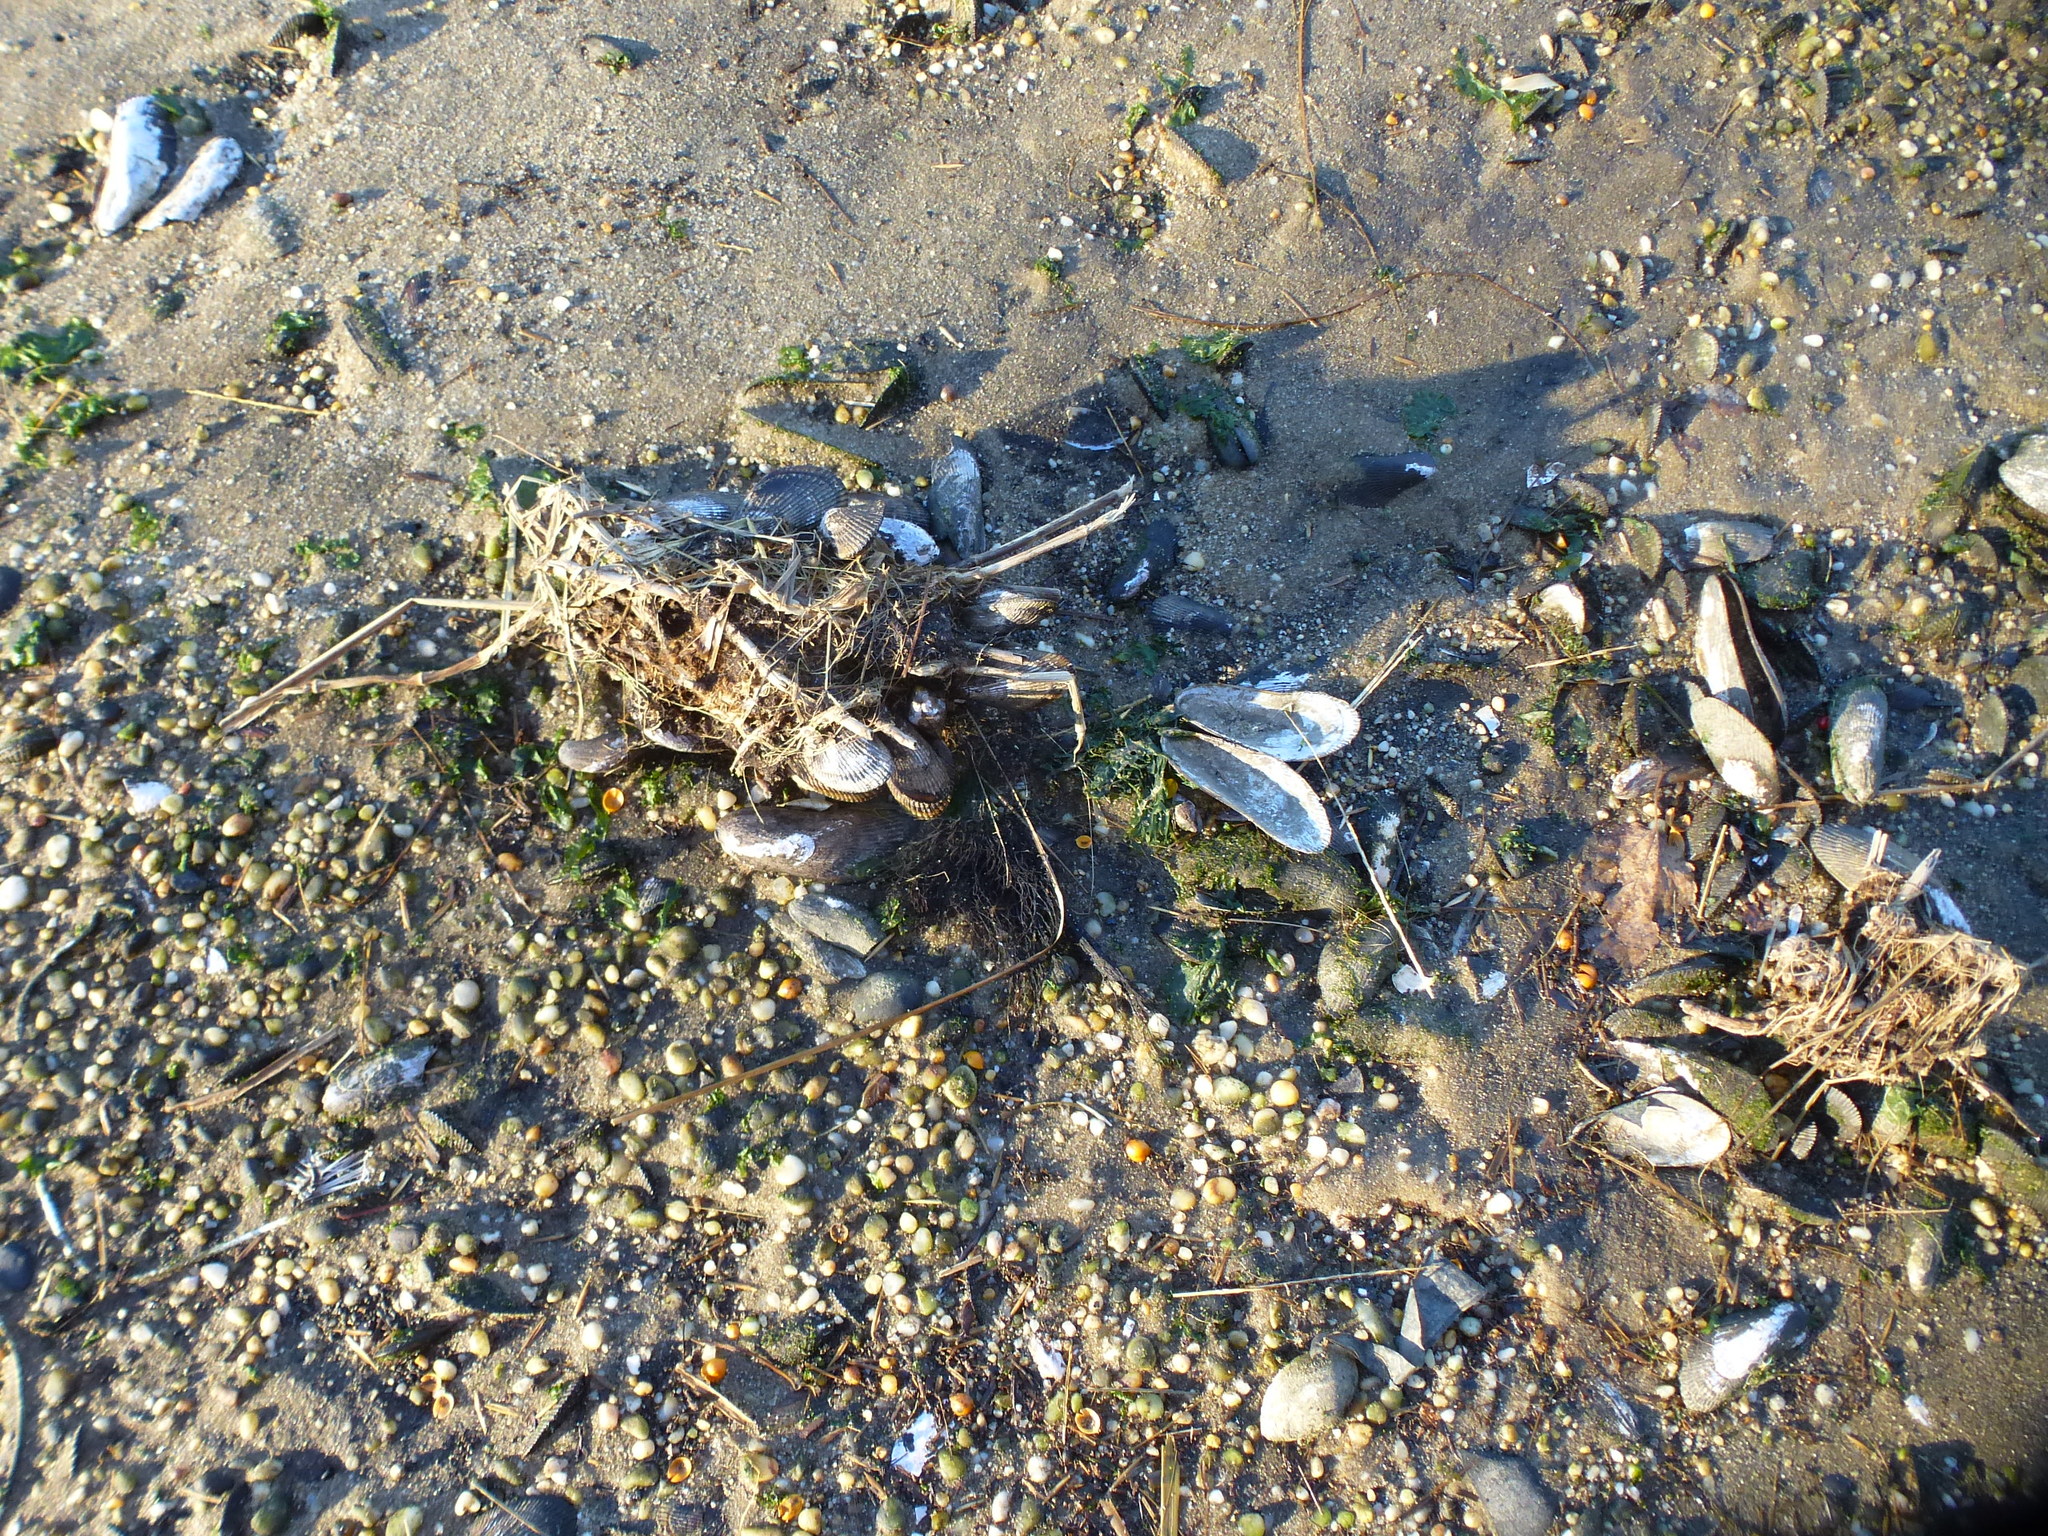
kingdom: Animalia
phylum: Mollusca
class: Bivalvia
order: Mytilida
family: Mytilidae
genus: Geukensia
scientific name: Geukensia demissa
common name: Ribbed mussel
